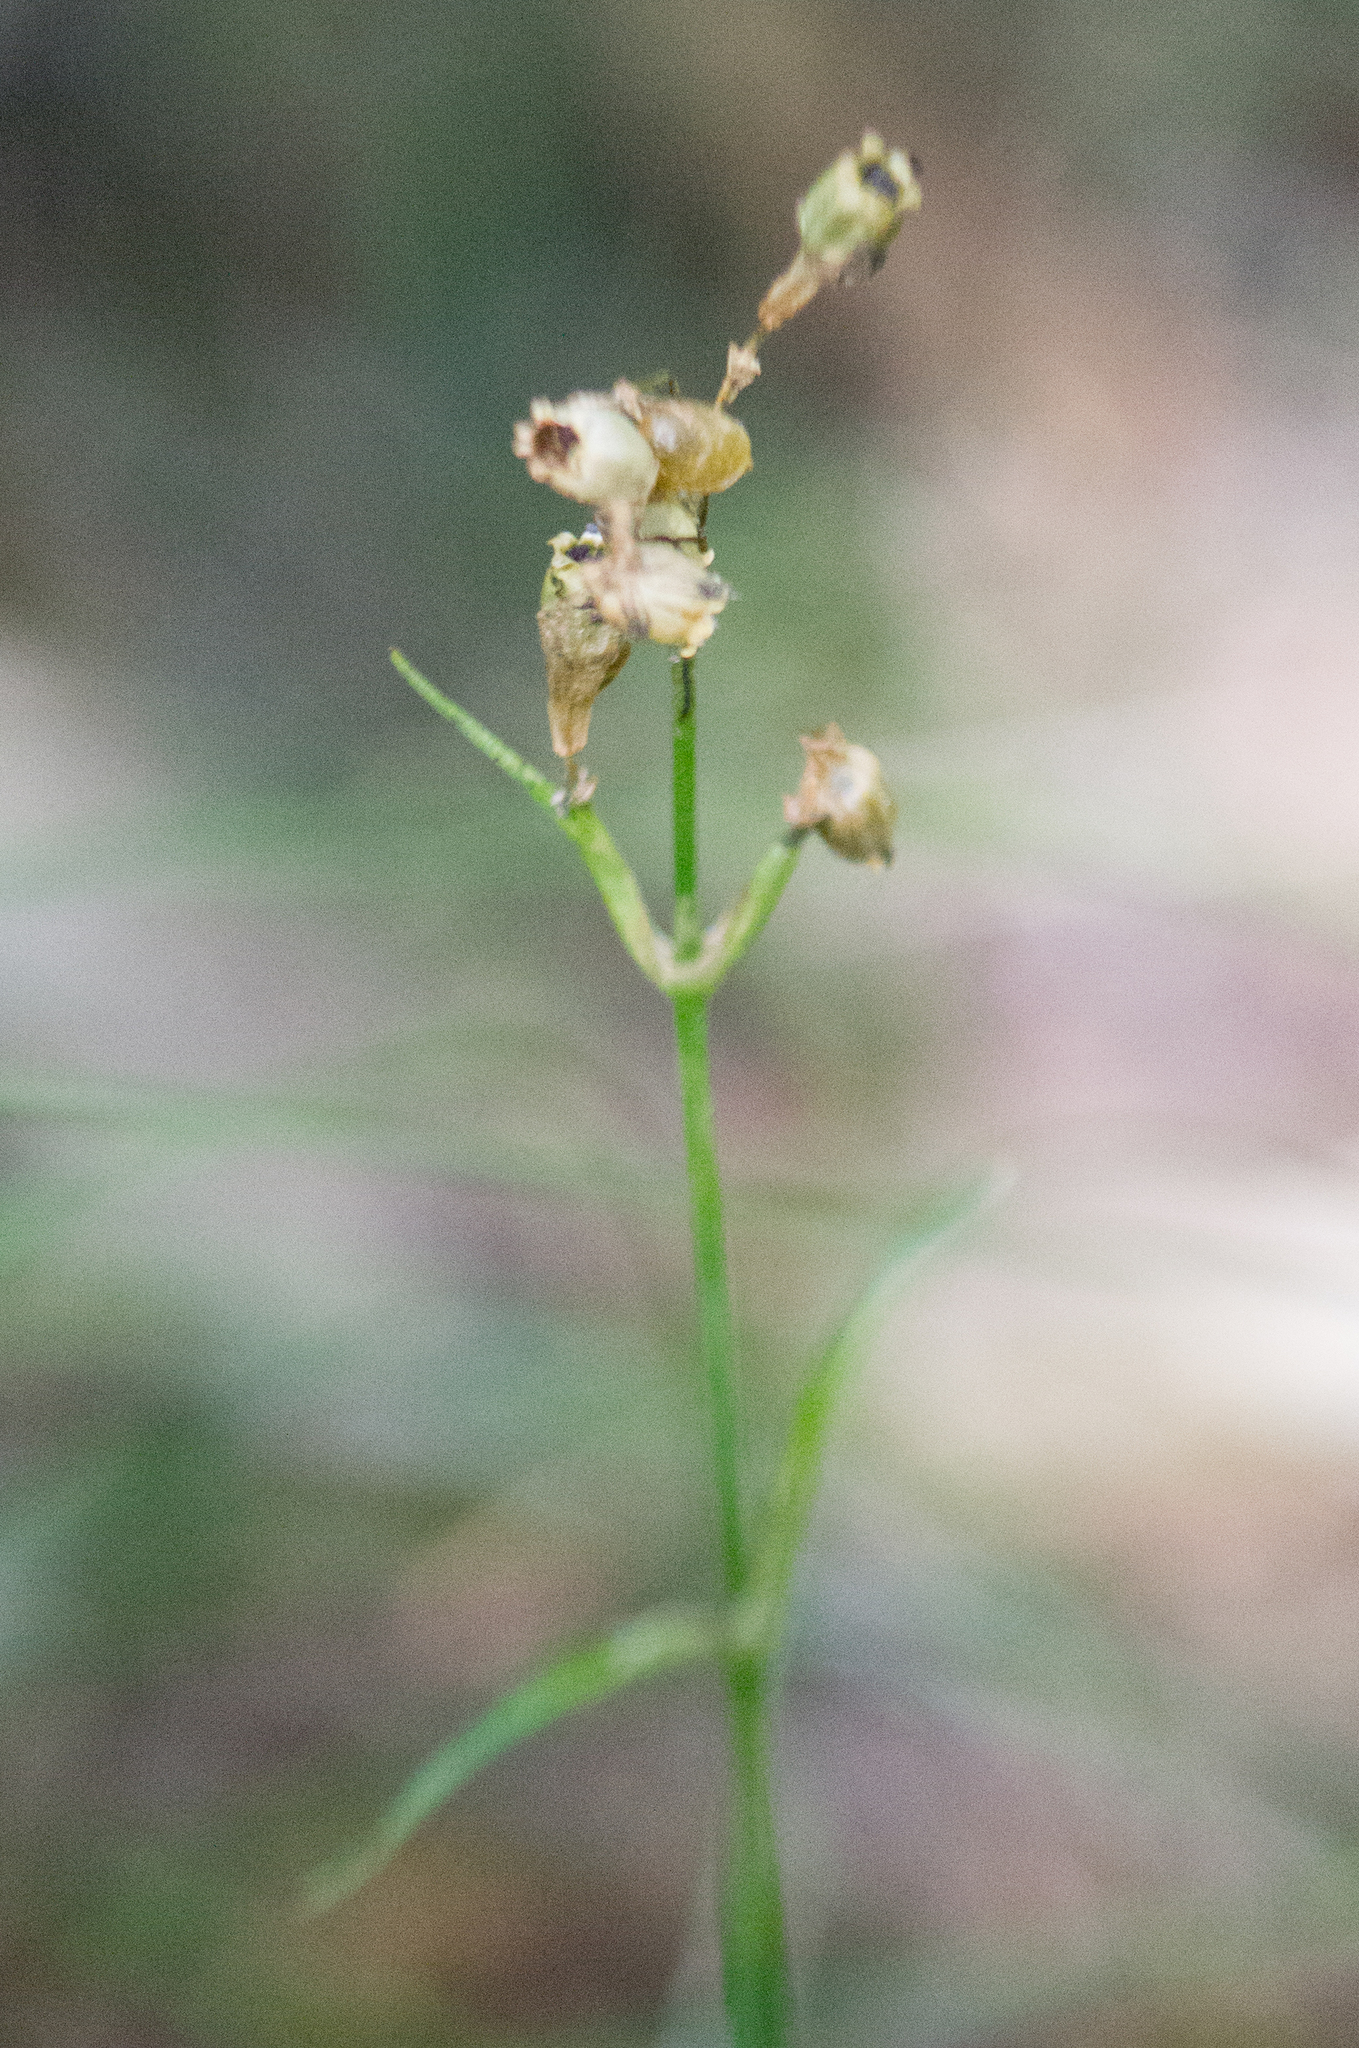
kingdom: Plantae
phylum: Tracheophyta
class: Magnoliopsida
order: Caryophyllales
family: Caryophyllaceae
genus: Viscaria
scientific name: Viscaria vulgaris
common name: Clammy campion
